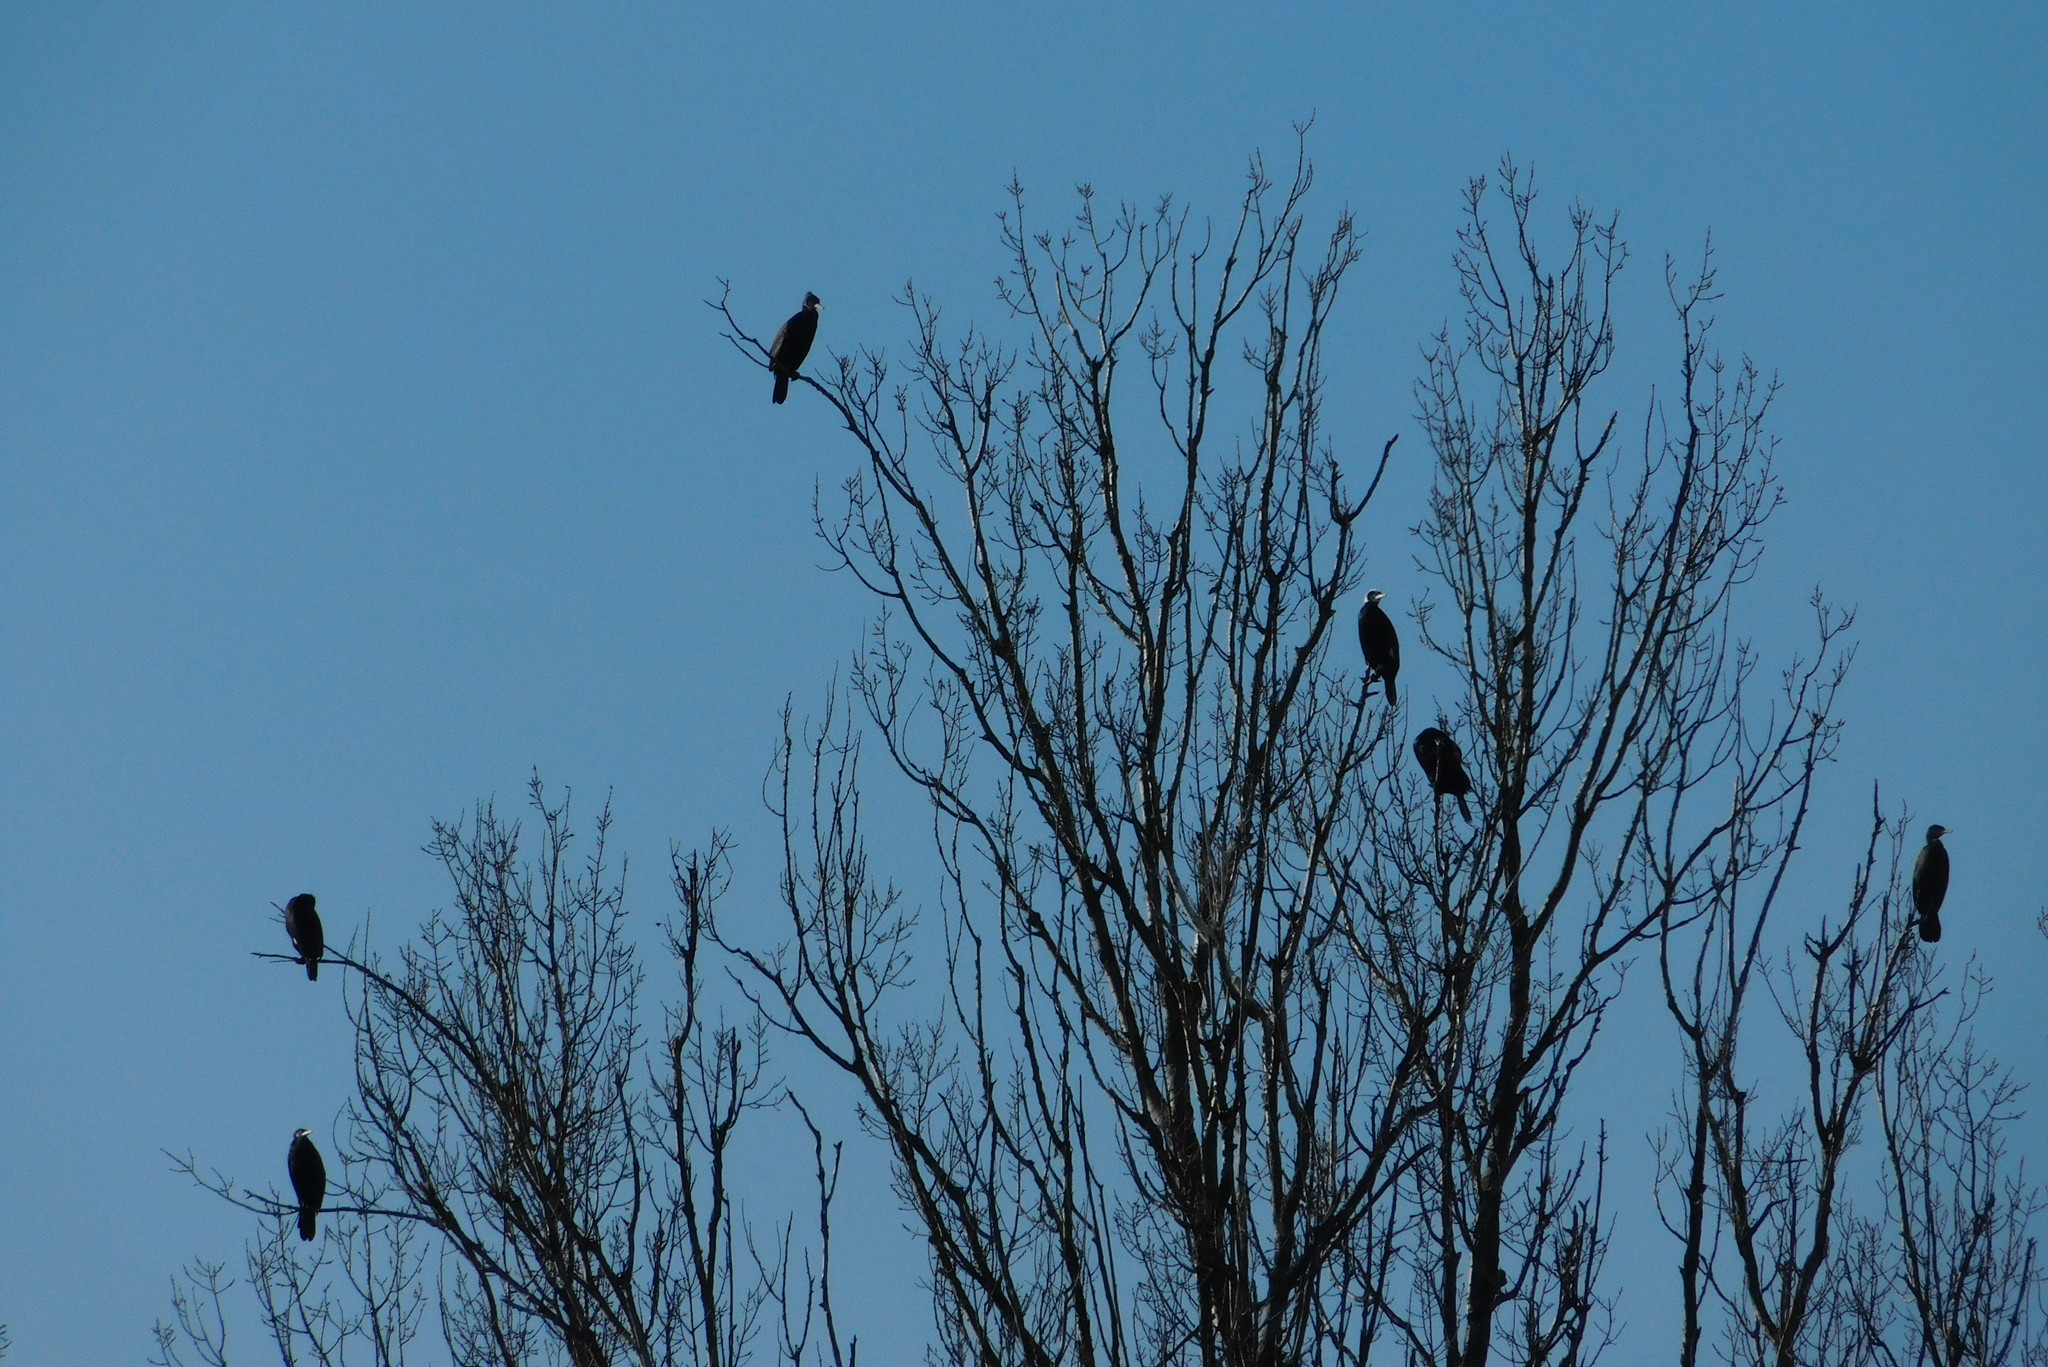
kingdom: Animalia
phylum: Chordata
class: Aves
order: Suliformes
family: Phalacrocoracidae
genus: Phalacrocorax
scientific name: Phalacrocorax carbo
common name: Great cormorant
